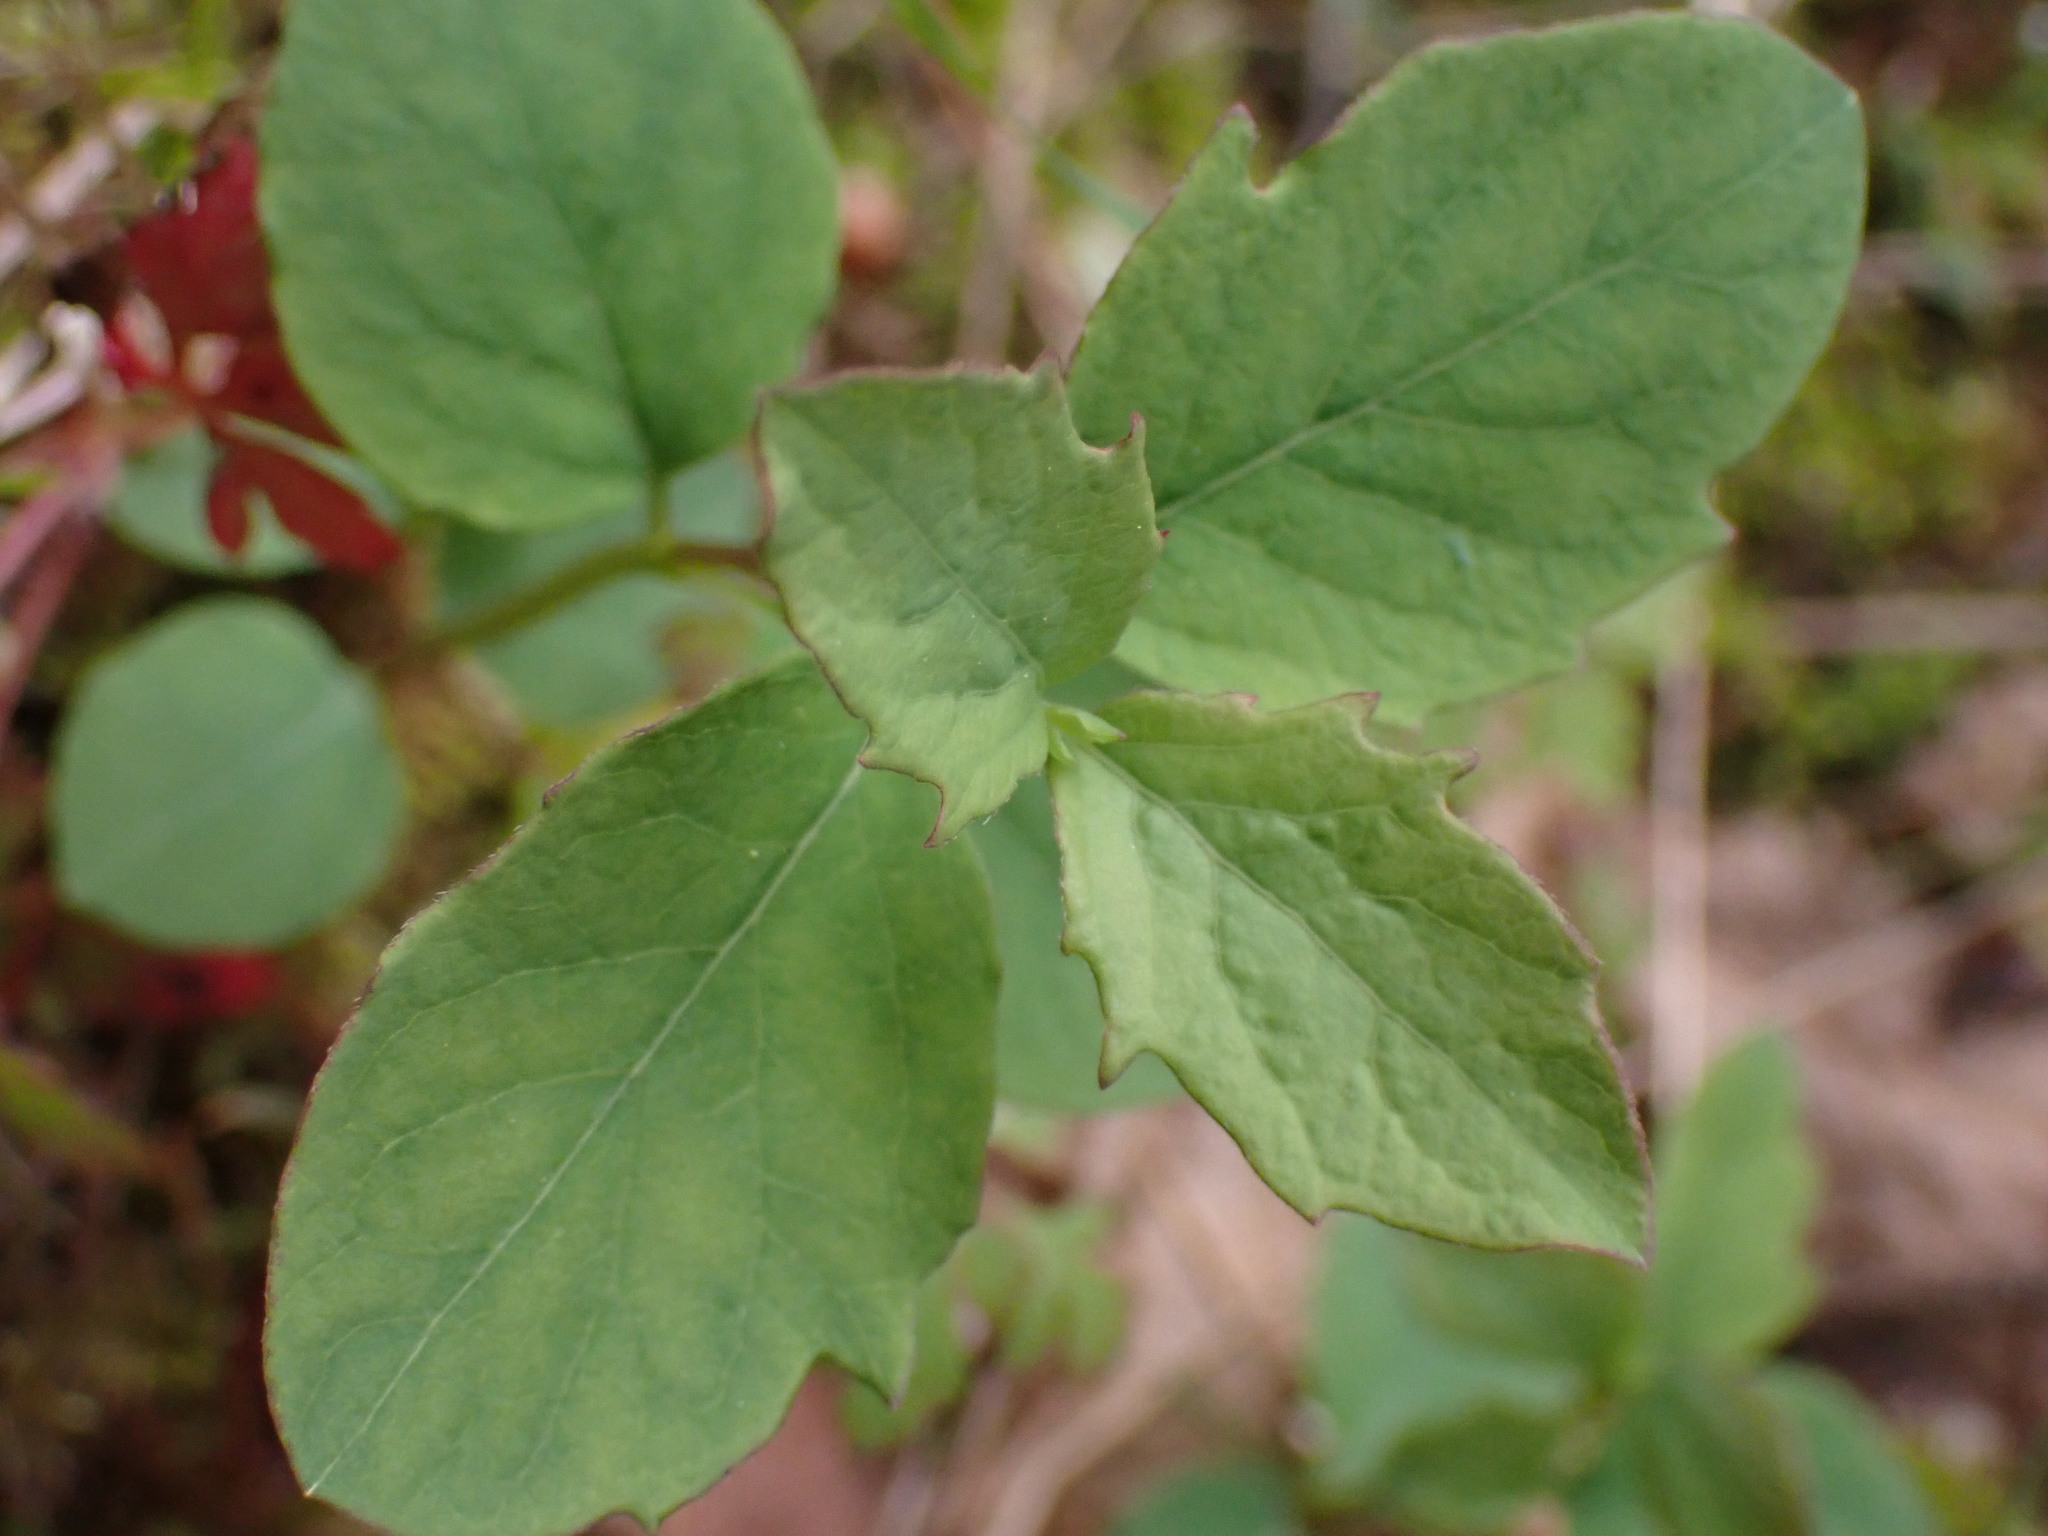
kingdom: Plantae
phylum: Tracheophyta
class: Magnoliopsida
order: Dipsacales
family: Caprifoliaceae
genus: Symphoricarpos
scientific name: Symphoricarpos albus
